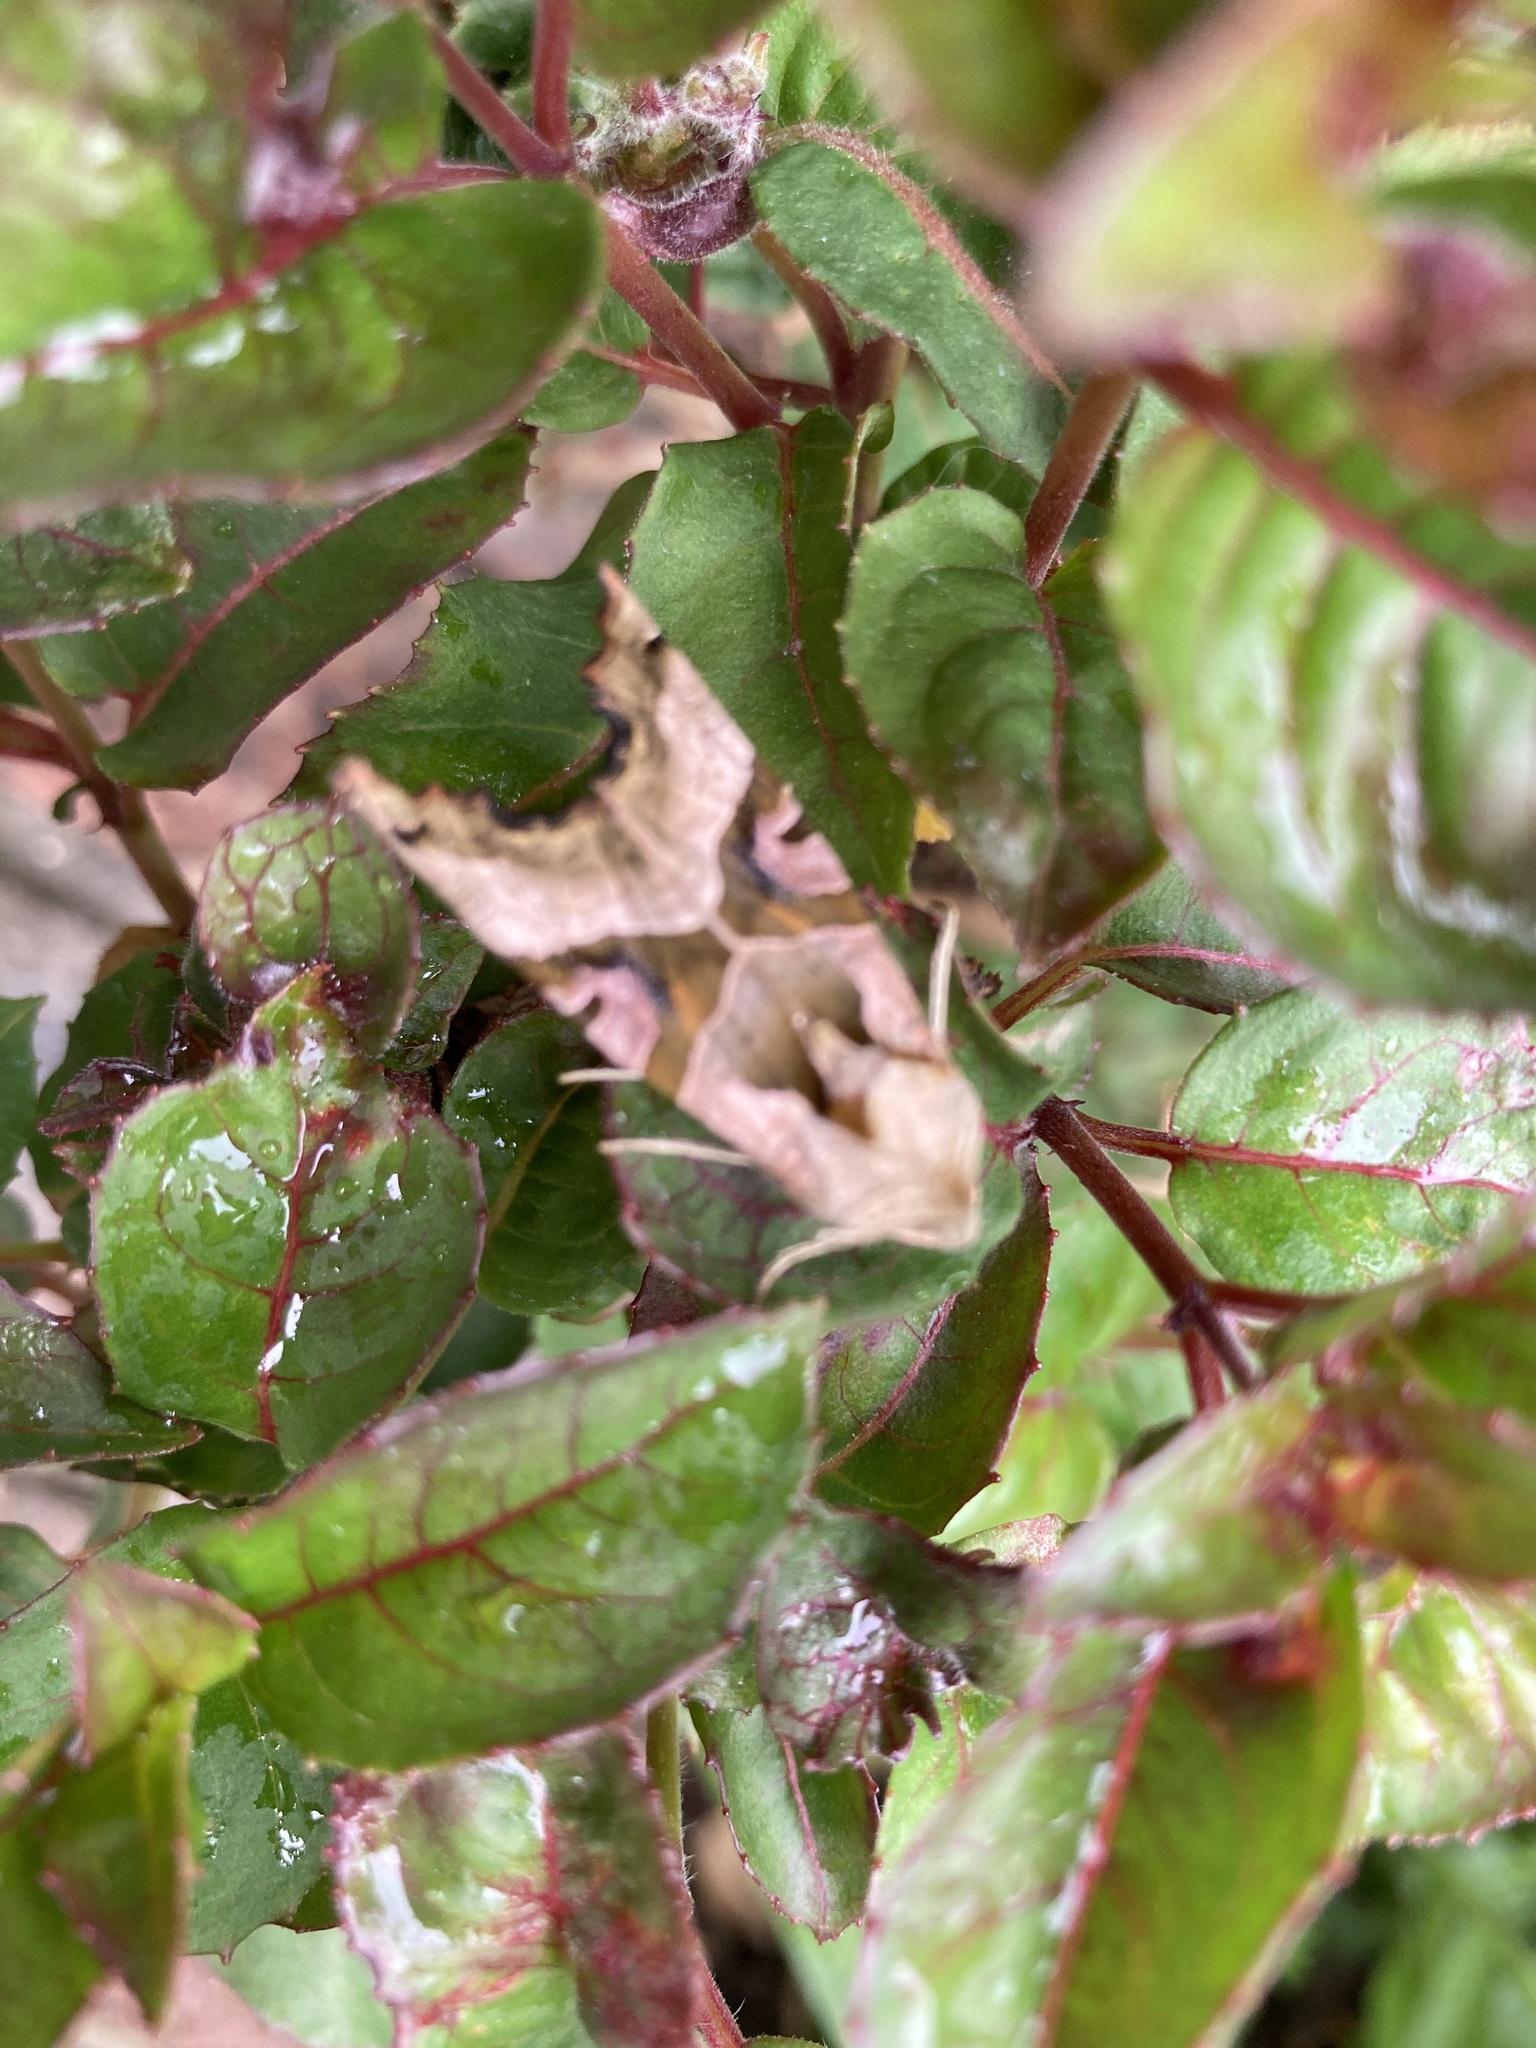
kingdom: Animalia
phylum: Arthropoda
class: Insecta
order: Lepidoptera
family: Noctuidae
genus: Phlogophora
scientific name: Phlogophora meticulosa
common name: Angle shades
